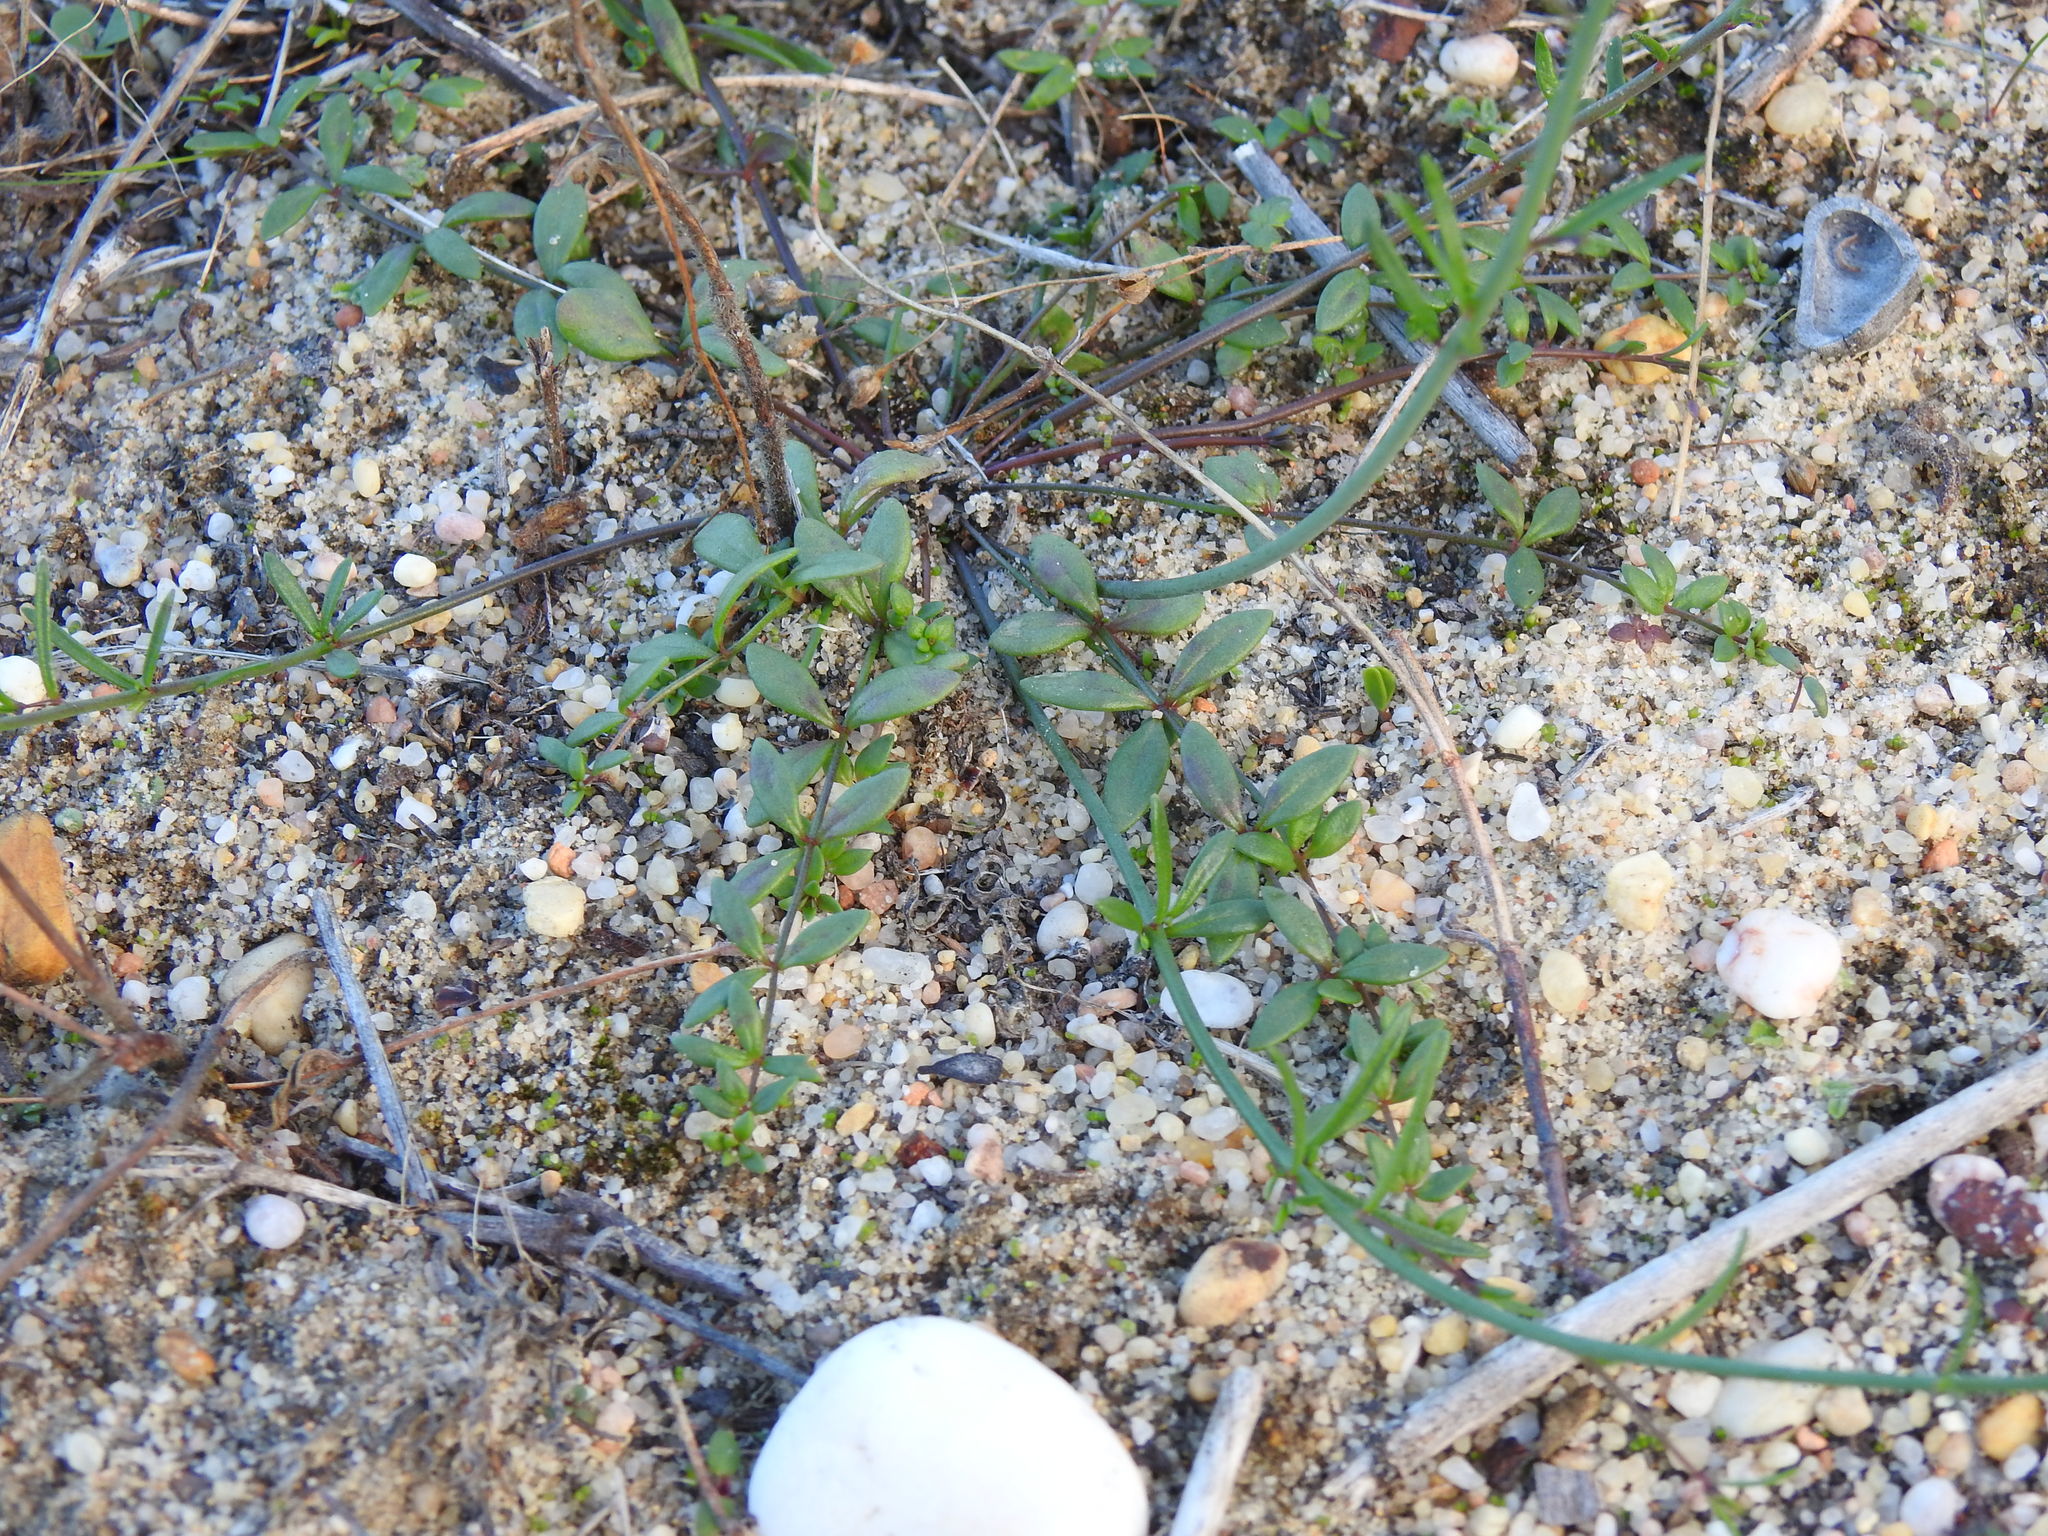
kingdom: Plantae
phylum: Tracheophyta
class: Magnoliopsida
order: Lamiales
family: Plantaginaceae
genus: Linaria
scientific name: Linaria spartea
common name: Ballast toadflax
